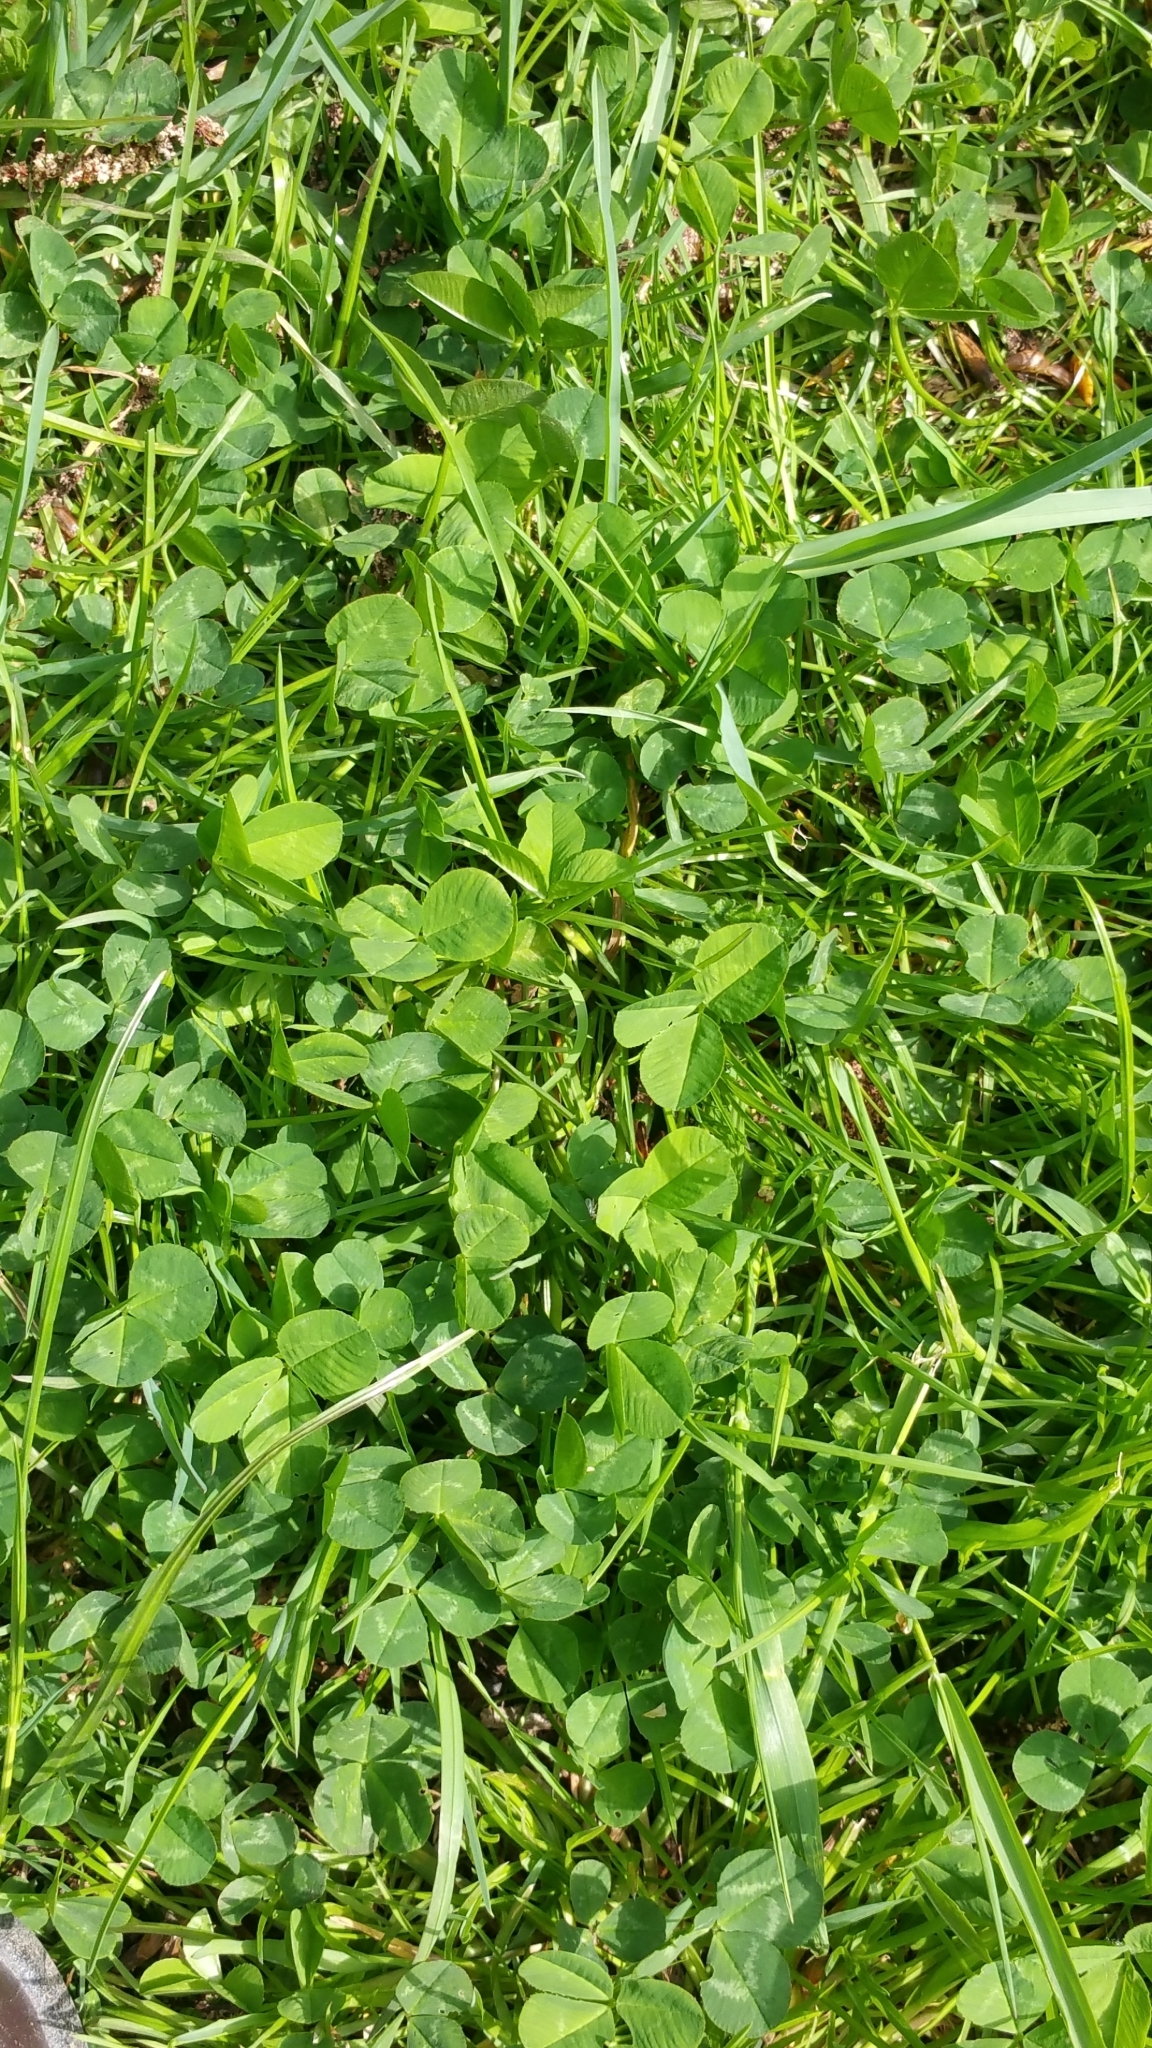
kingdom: Plantae
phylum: Tracheophyta
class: Magnoliopsida
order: Fabales
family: Fabaceae
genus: Trifolium
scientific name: Trifolium repens
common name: White clover
